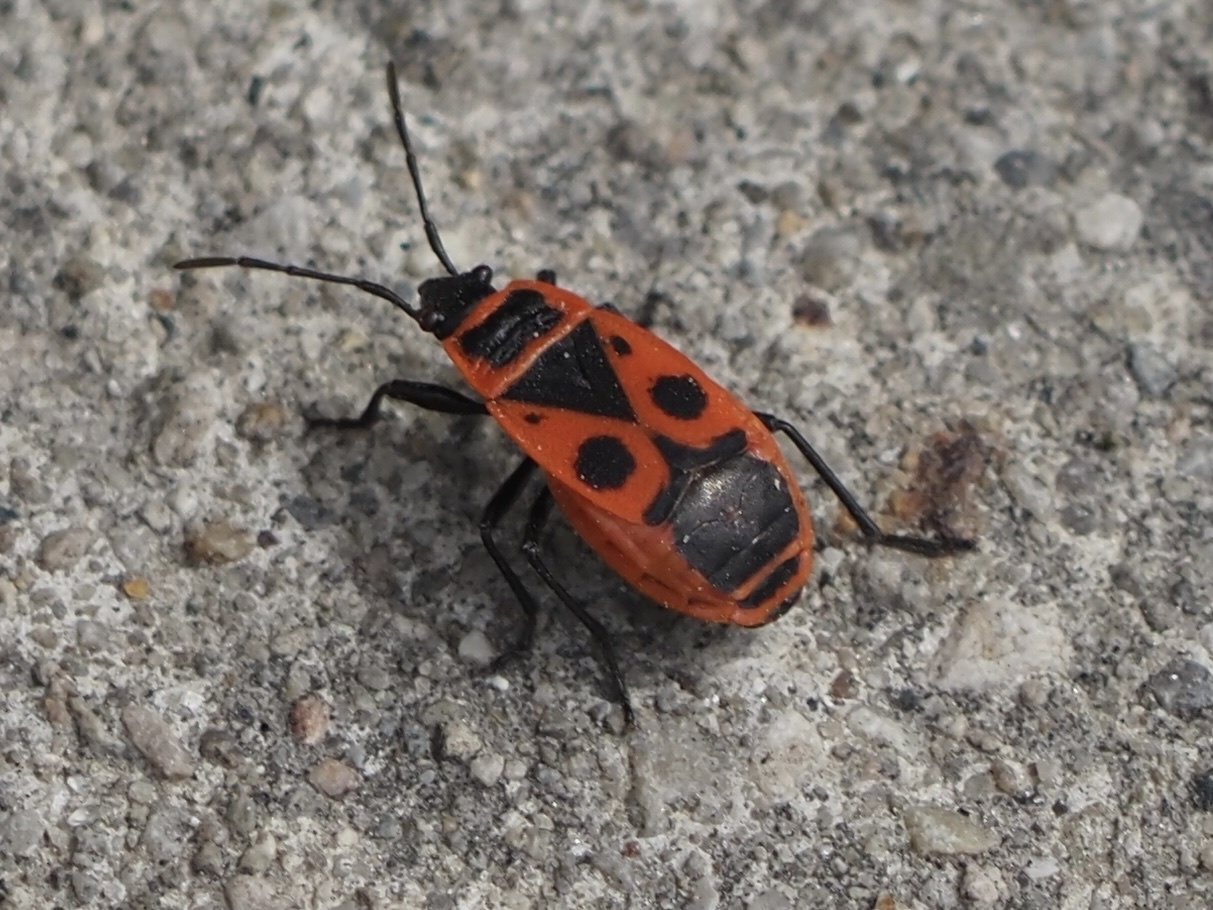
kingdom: Animalia
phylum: Arthropoda
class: Insecta
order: Hemiptera
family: Pyrrhocoridae
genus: Pyrrhocoris
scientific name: Pyrrhocoris apterus
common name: Firebug
